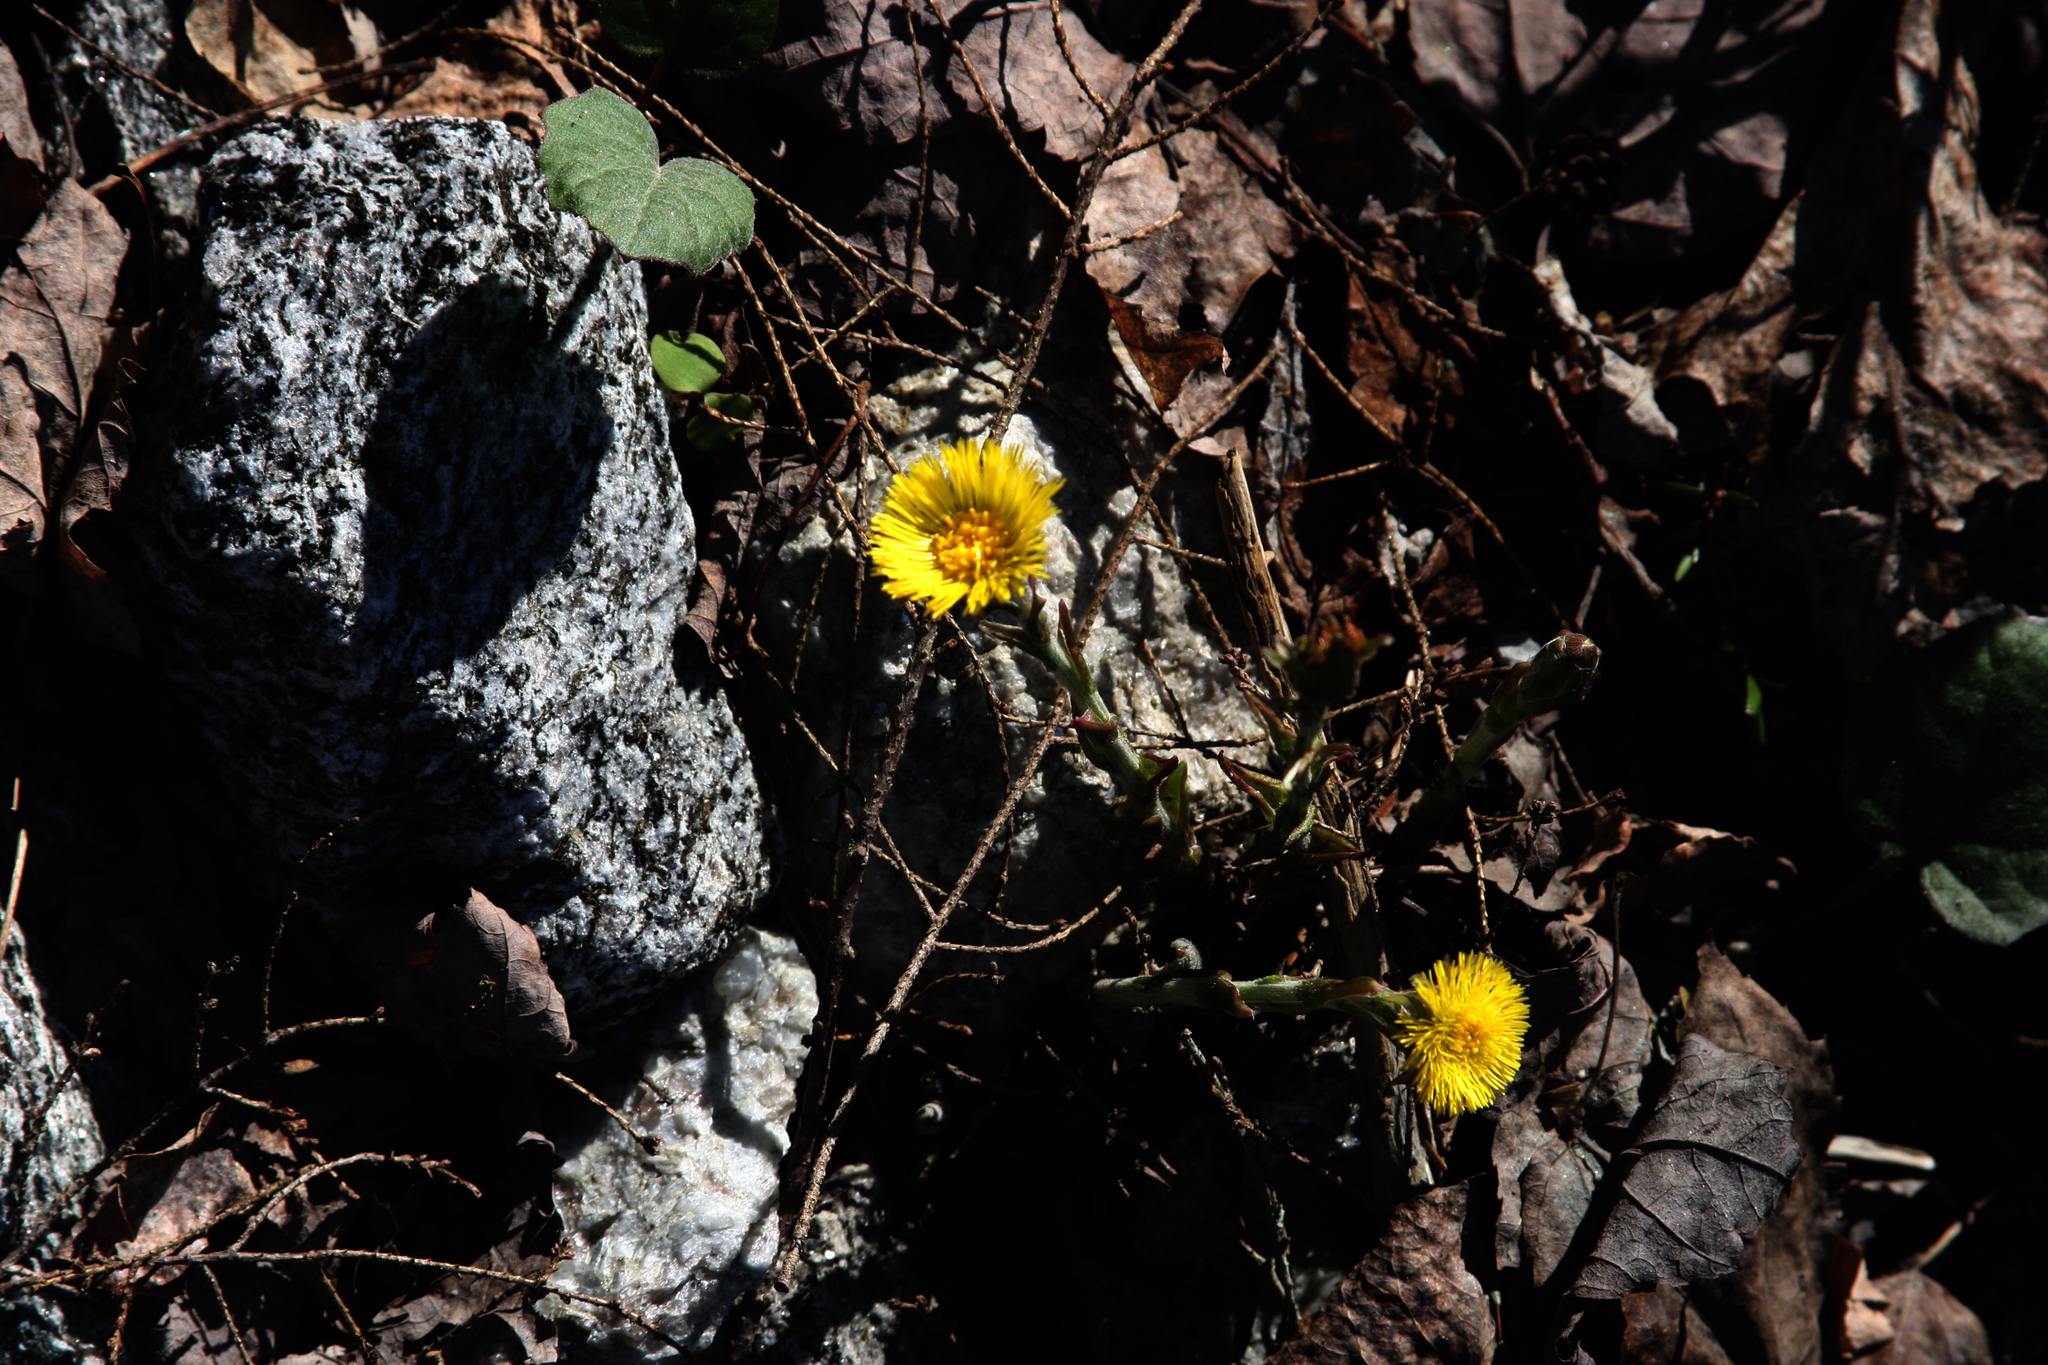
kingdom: Plantae
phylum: Tracheophyta
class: Magnoliopsida
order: Asterales
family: Asteraceae
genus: Tussilago
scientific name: Tussilago farfara
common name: Coltsfoot
